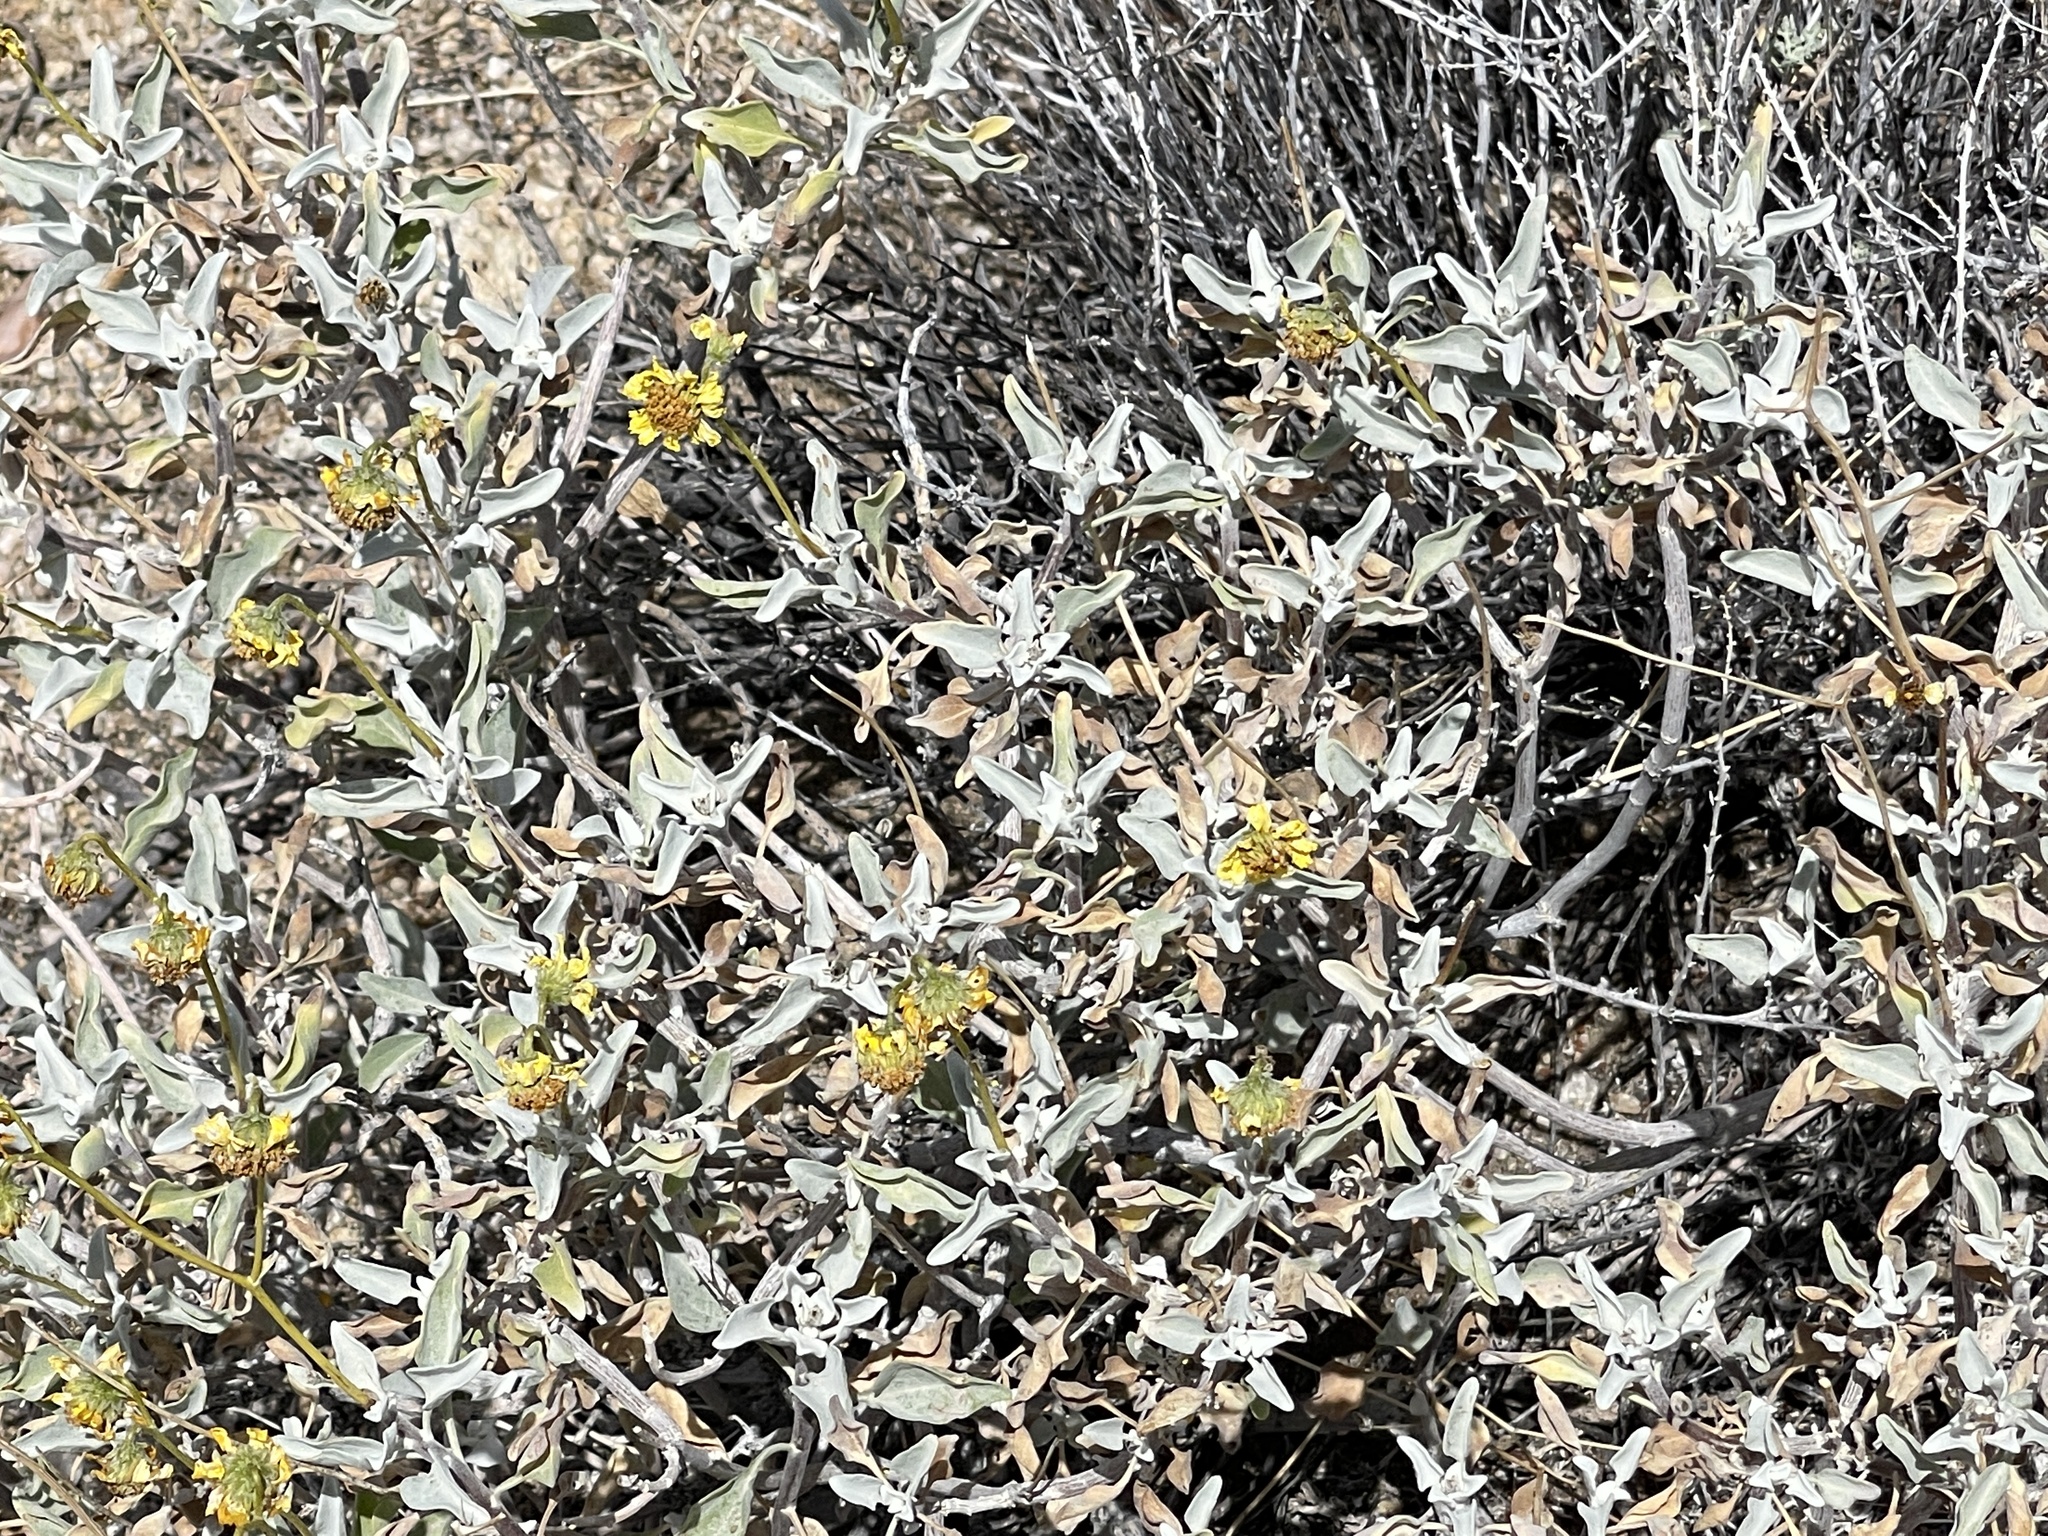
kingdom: Plantae
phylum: Tracheophyta
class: Magnoliopsida
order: Asterales
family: Asteraceae
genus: Encelia
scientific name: Encelia farinosa
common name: Brittlebush
